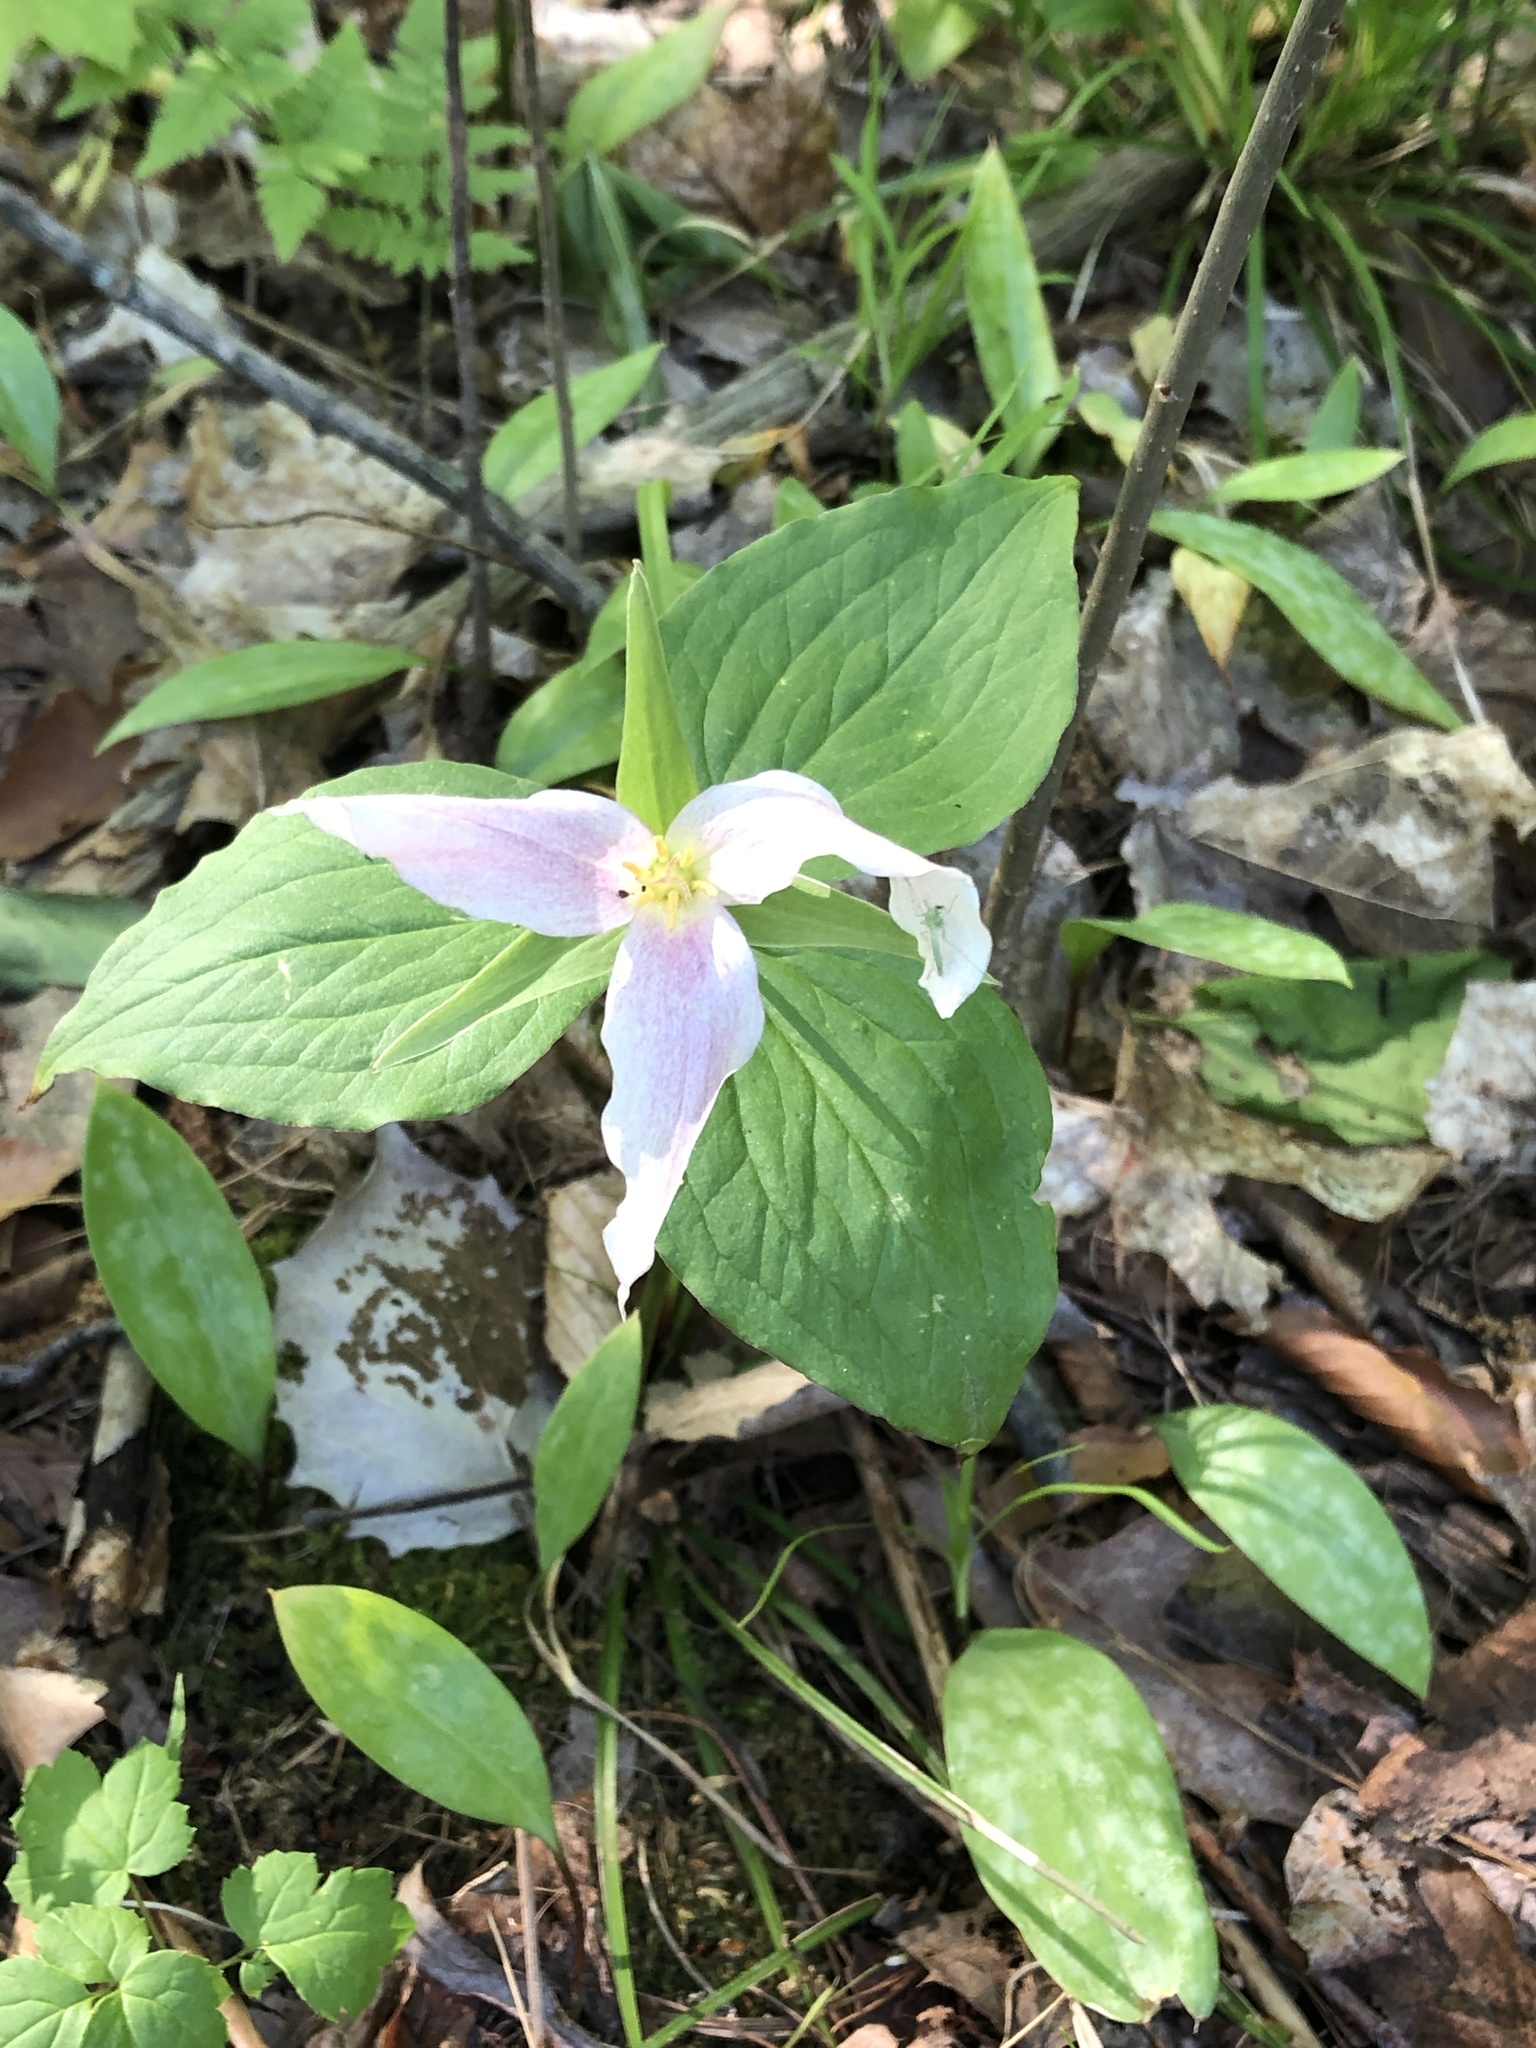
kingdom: Plantae
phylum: Tracheophyta
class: Liliopsida
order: Liliales
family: Melanthiaceae
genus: Trillium
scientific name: Trillium grandiflorum
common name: Great white trillium
